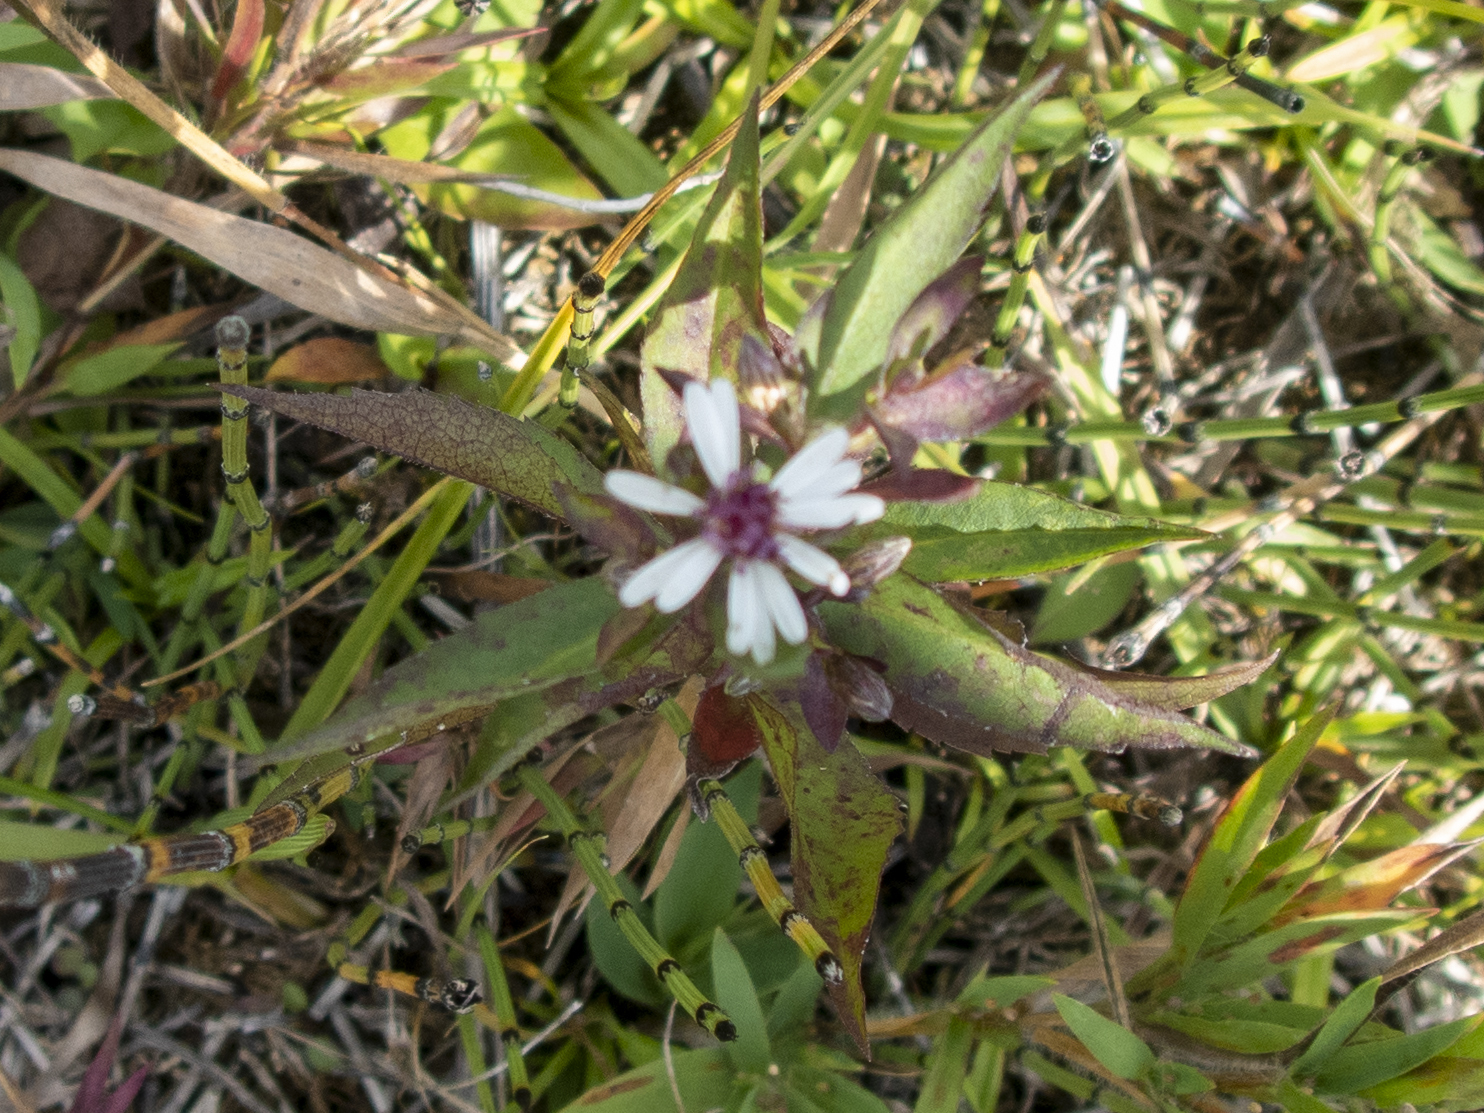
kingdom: Plantae
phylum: Tracheophyta
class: Magnoliopsida
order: Asterales
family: Asteraceae
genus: Symphyotrichum
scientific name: Symphyotrichum lateriflorum
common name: Calico aster
